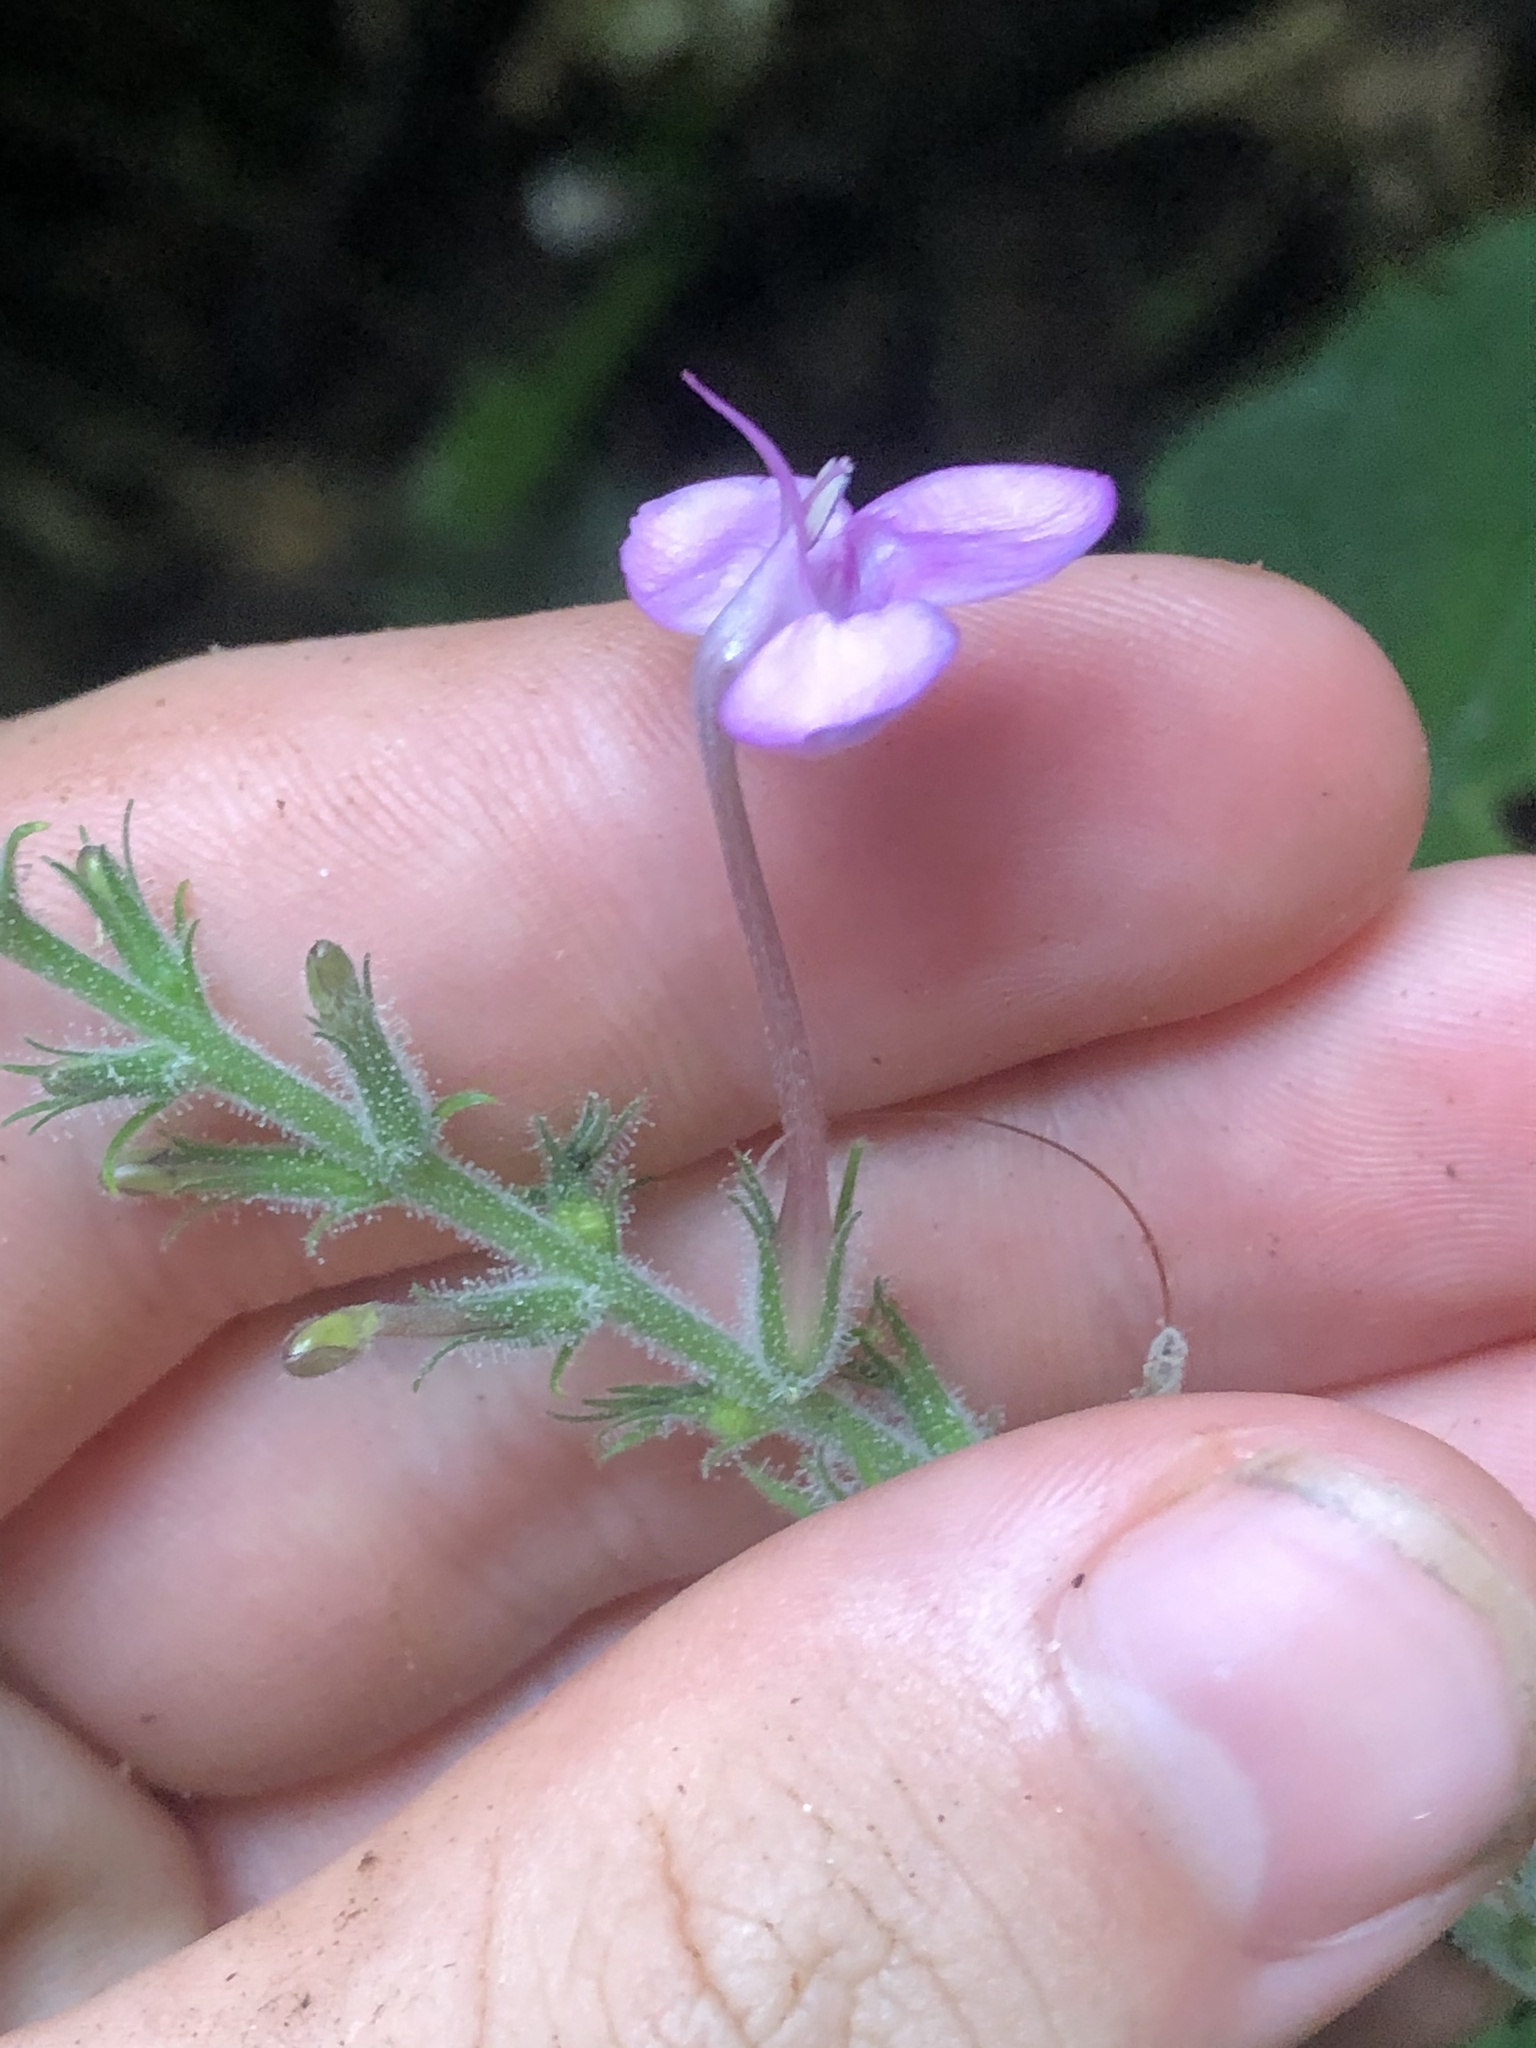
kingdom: Plantae
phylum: Tracheophyta
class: Magnoliopsida
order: Lamiales
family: Acanthaceae
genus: Pachystachys
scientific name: Pachystachys dubiosa
